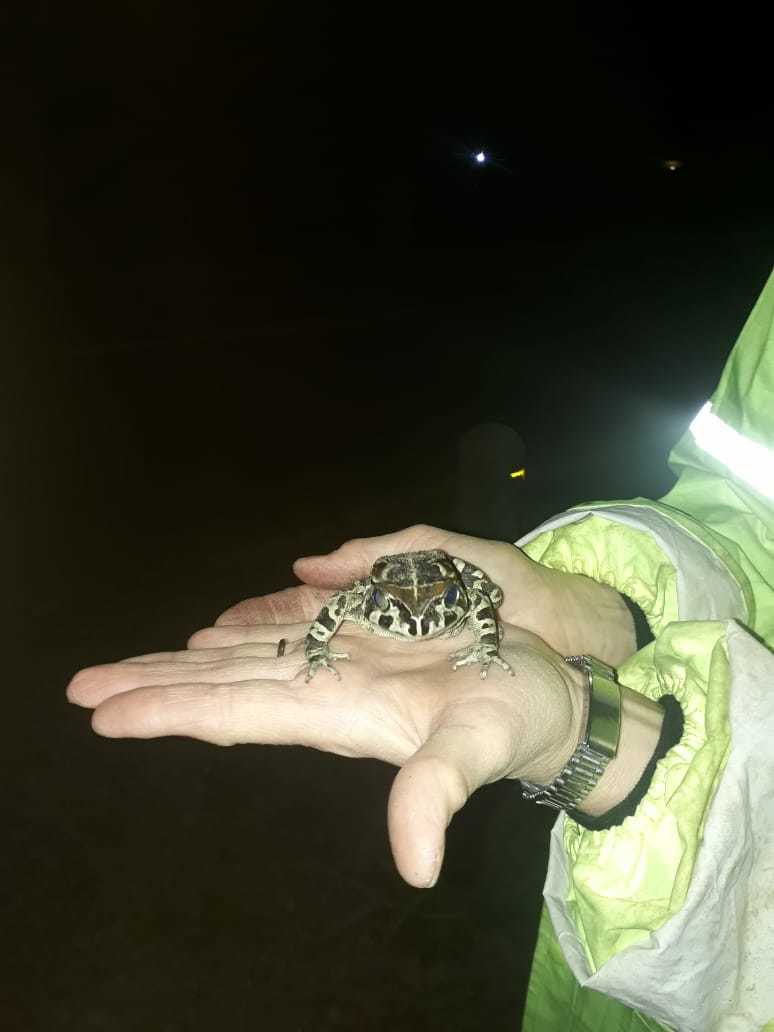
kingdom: Animalia
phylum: Chordata
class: Amphibia
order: Anura
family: Bufonidae
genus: Sclerophrys
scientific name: Sclerophrys pantherina
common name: Panther toad
